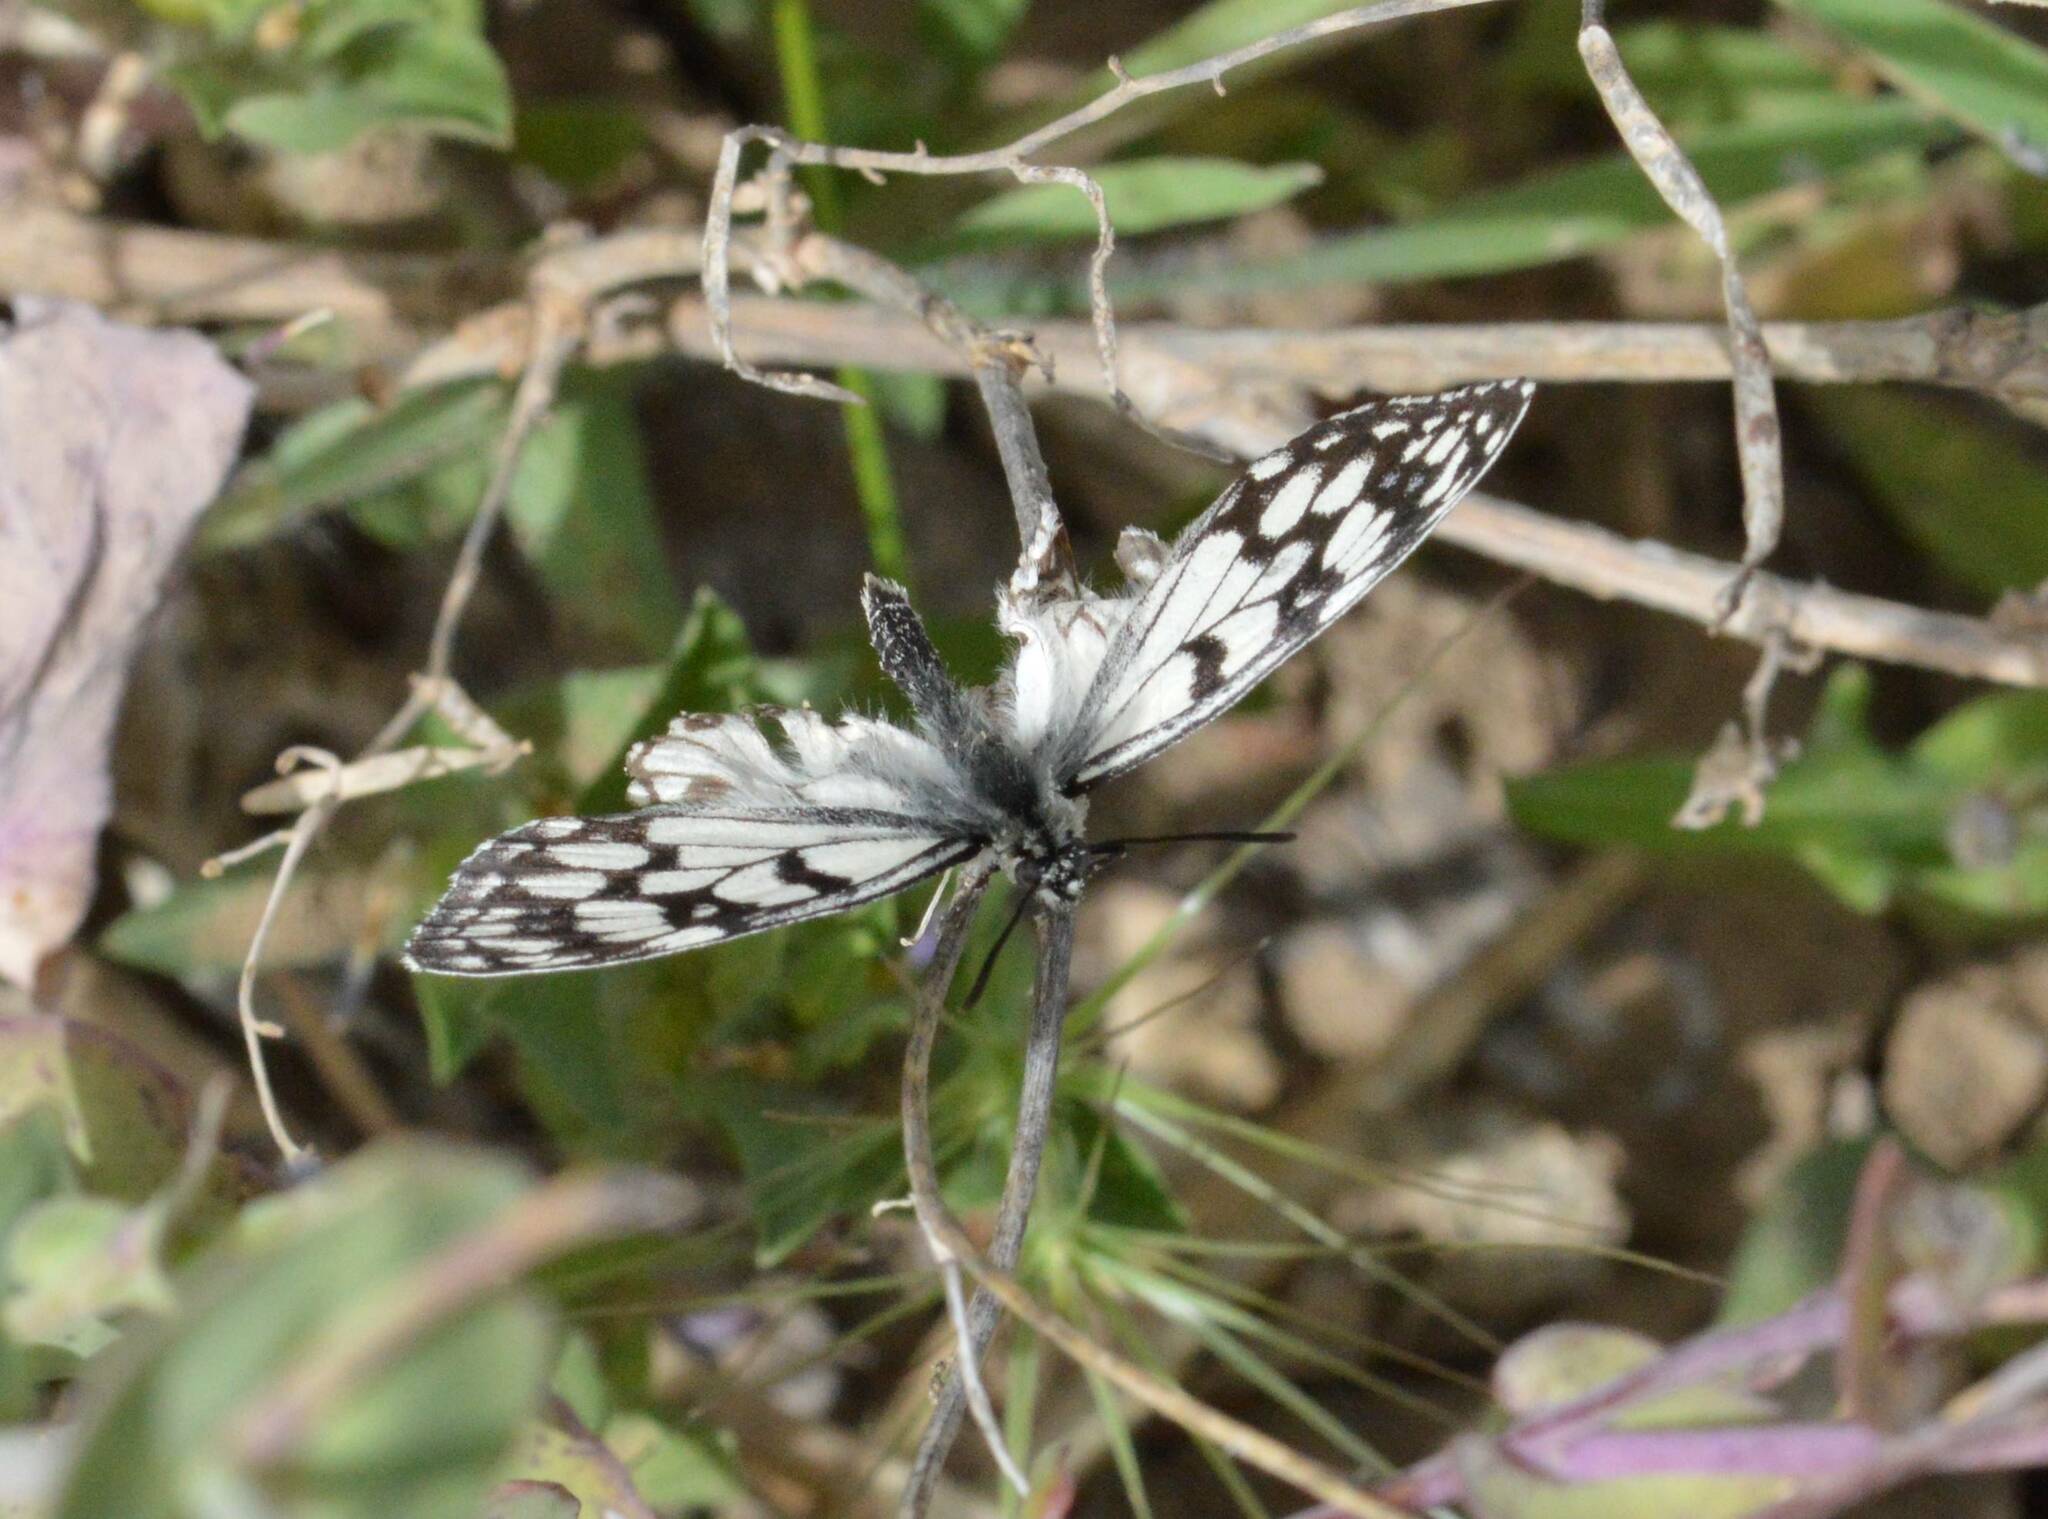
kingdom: Animalia
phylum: Arthropoda
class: Insecta
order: Lepidoptera
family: Nymphalidae
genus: Melanargia
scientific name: Melanargia ines
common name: Spanish marbled white
